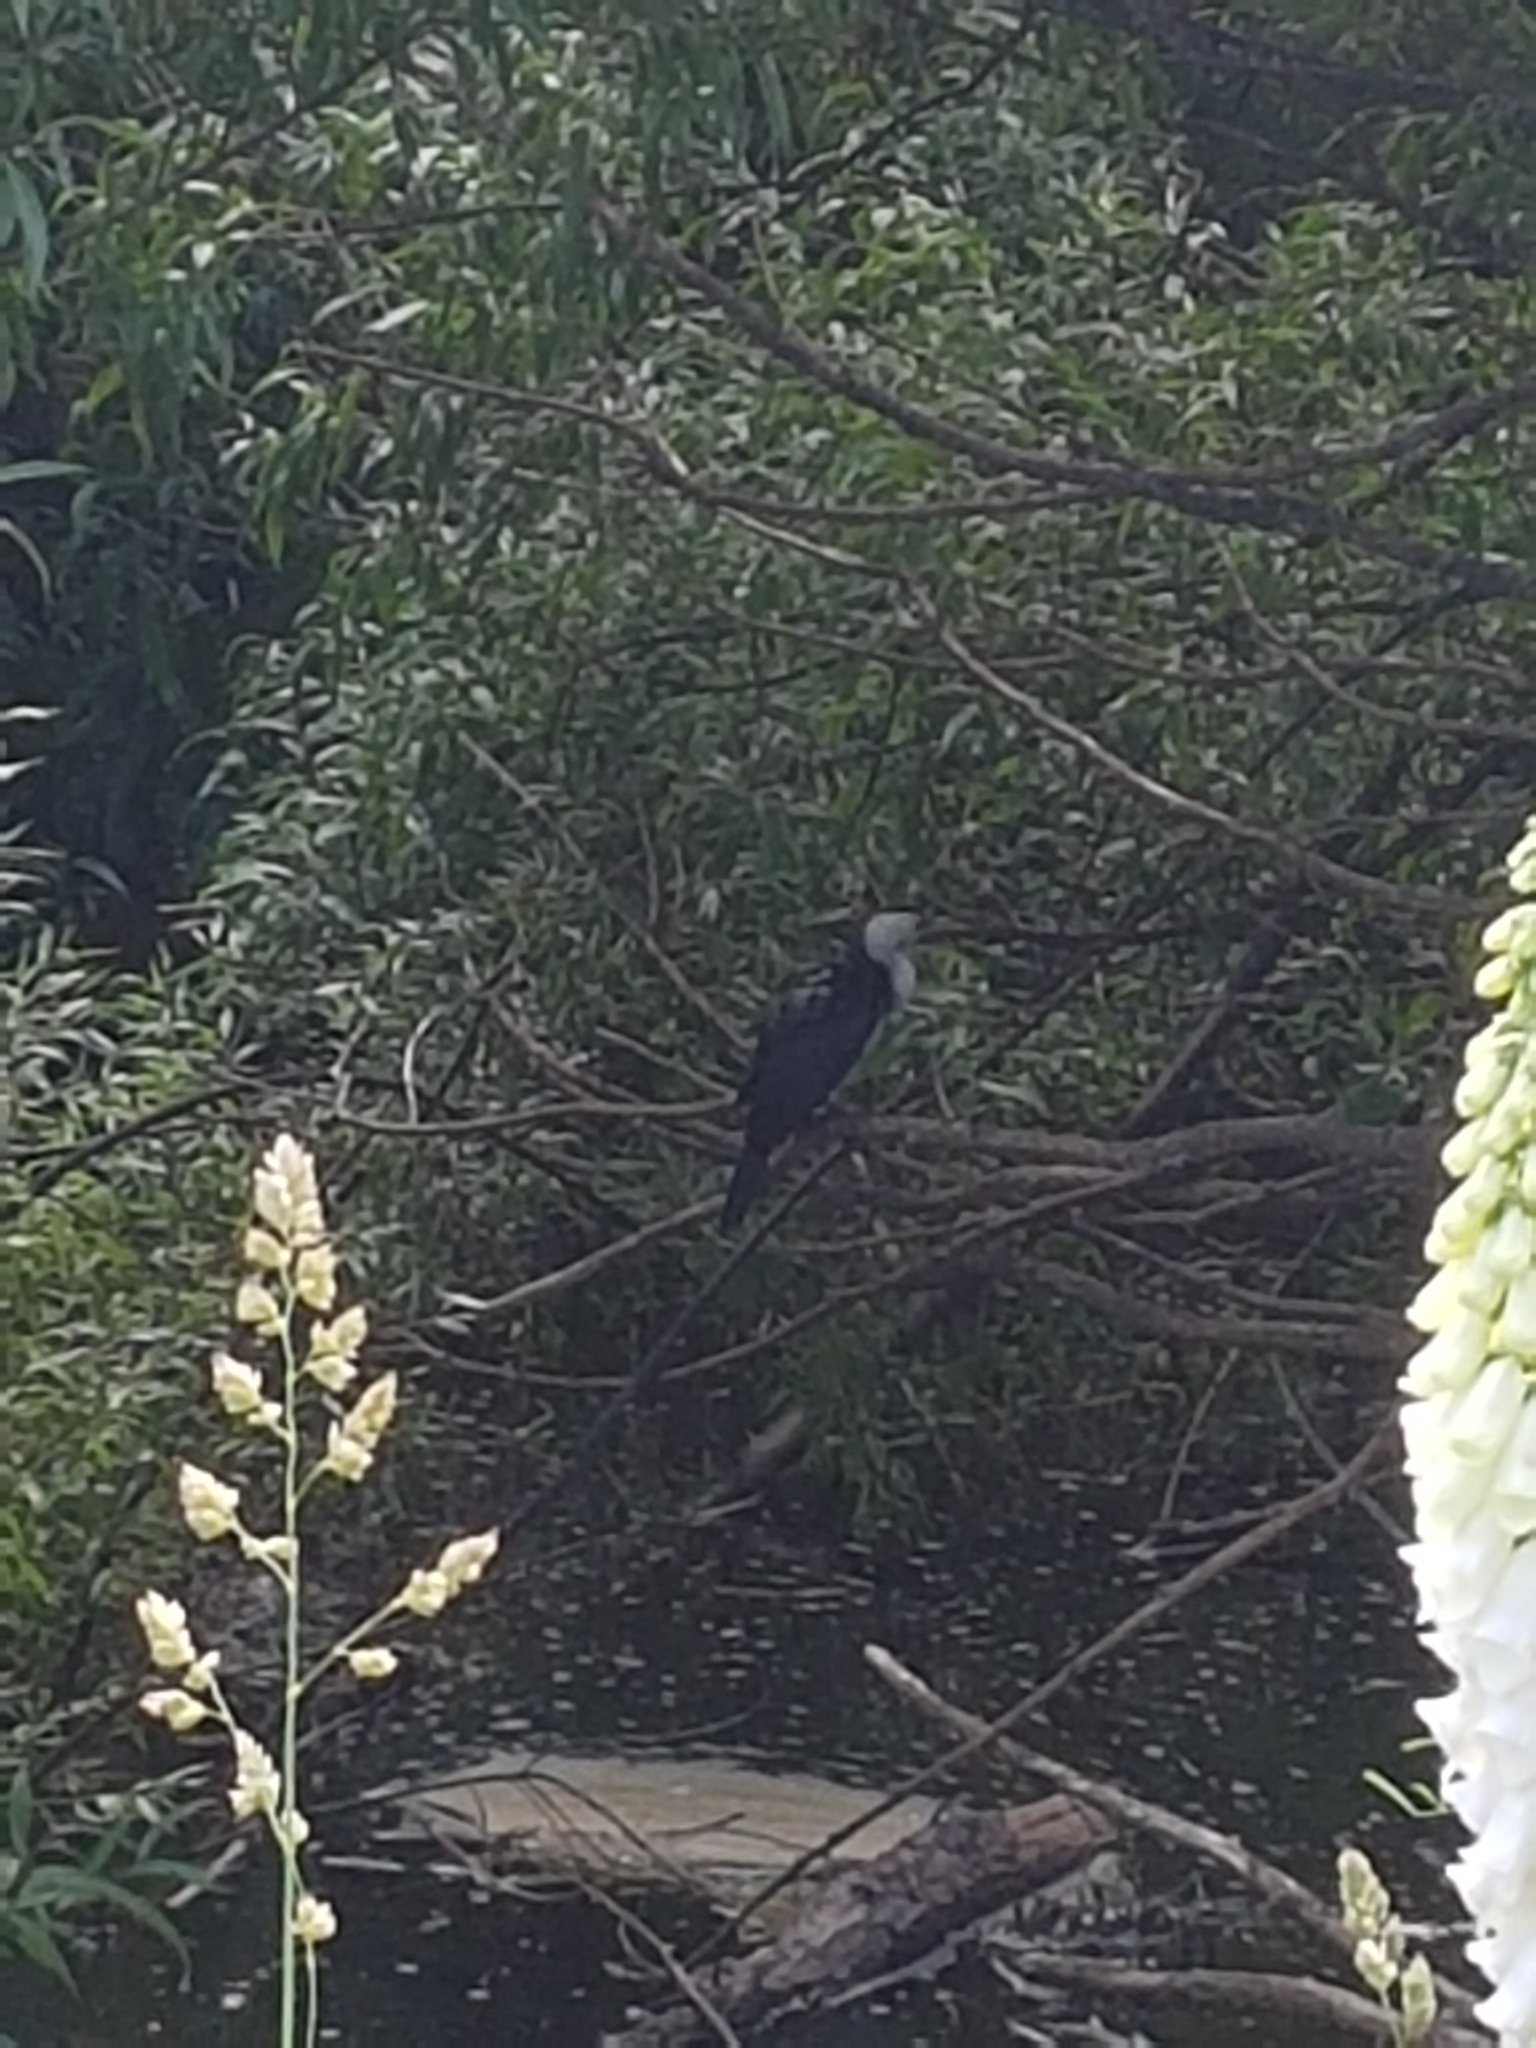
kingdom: Animalia
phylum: Chordata
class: Aves
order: Suliformes
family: Phalacrocoracidae
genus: Microcarbo
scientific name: Microcarbo melanoleucos
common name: Little pied cormorant
